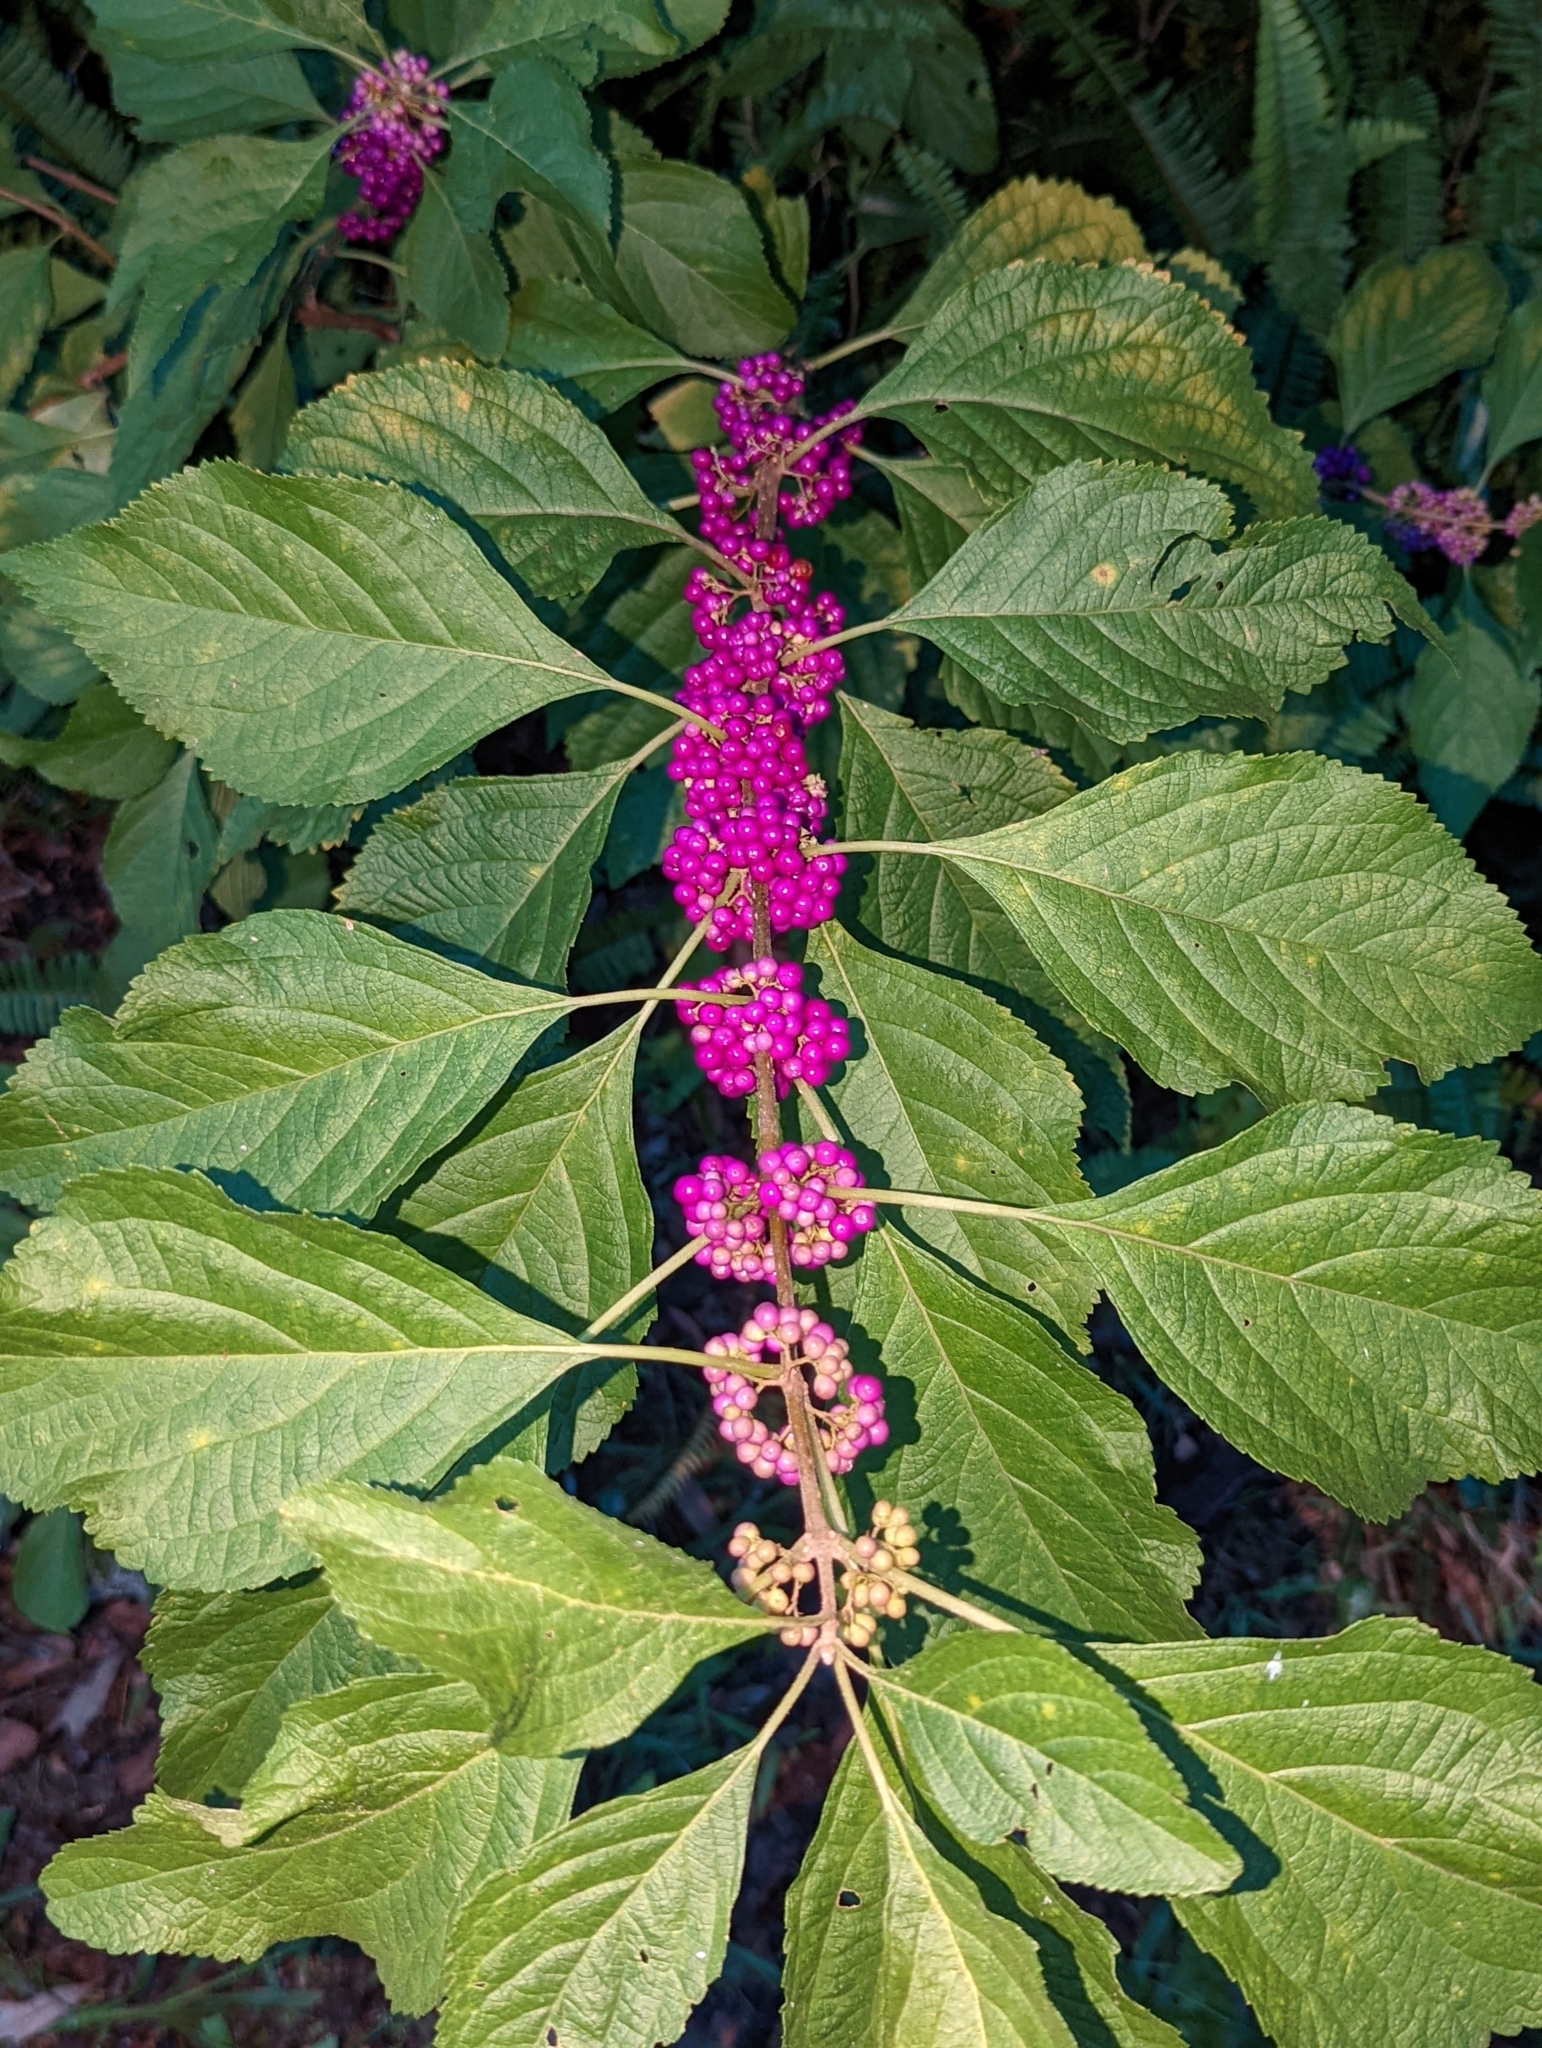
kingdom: Plantae
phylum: Tracheophyta
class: Magnoliopsida
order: Lamiales
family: Lamiaceae
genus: Callicarpa
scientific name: Callicarpa americana
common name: American beautyberry
